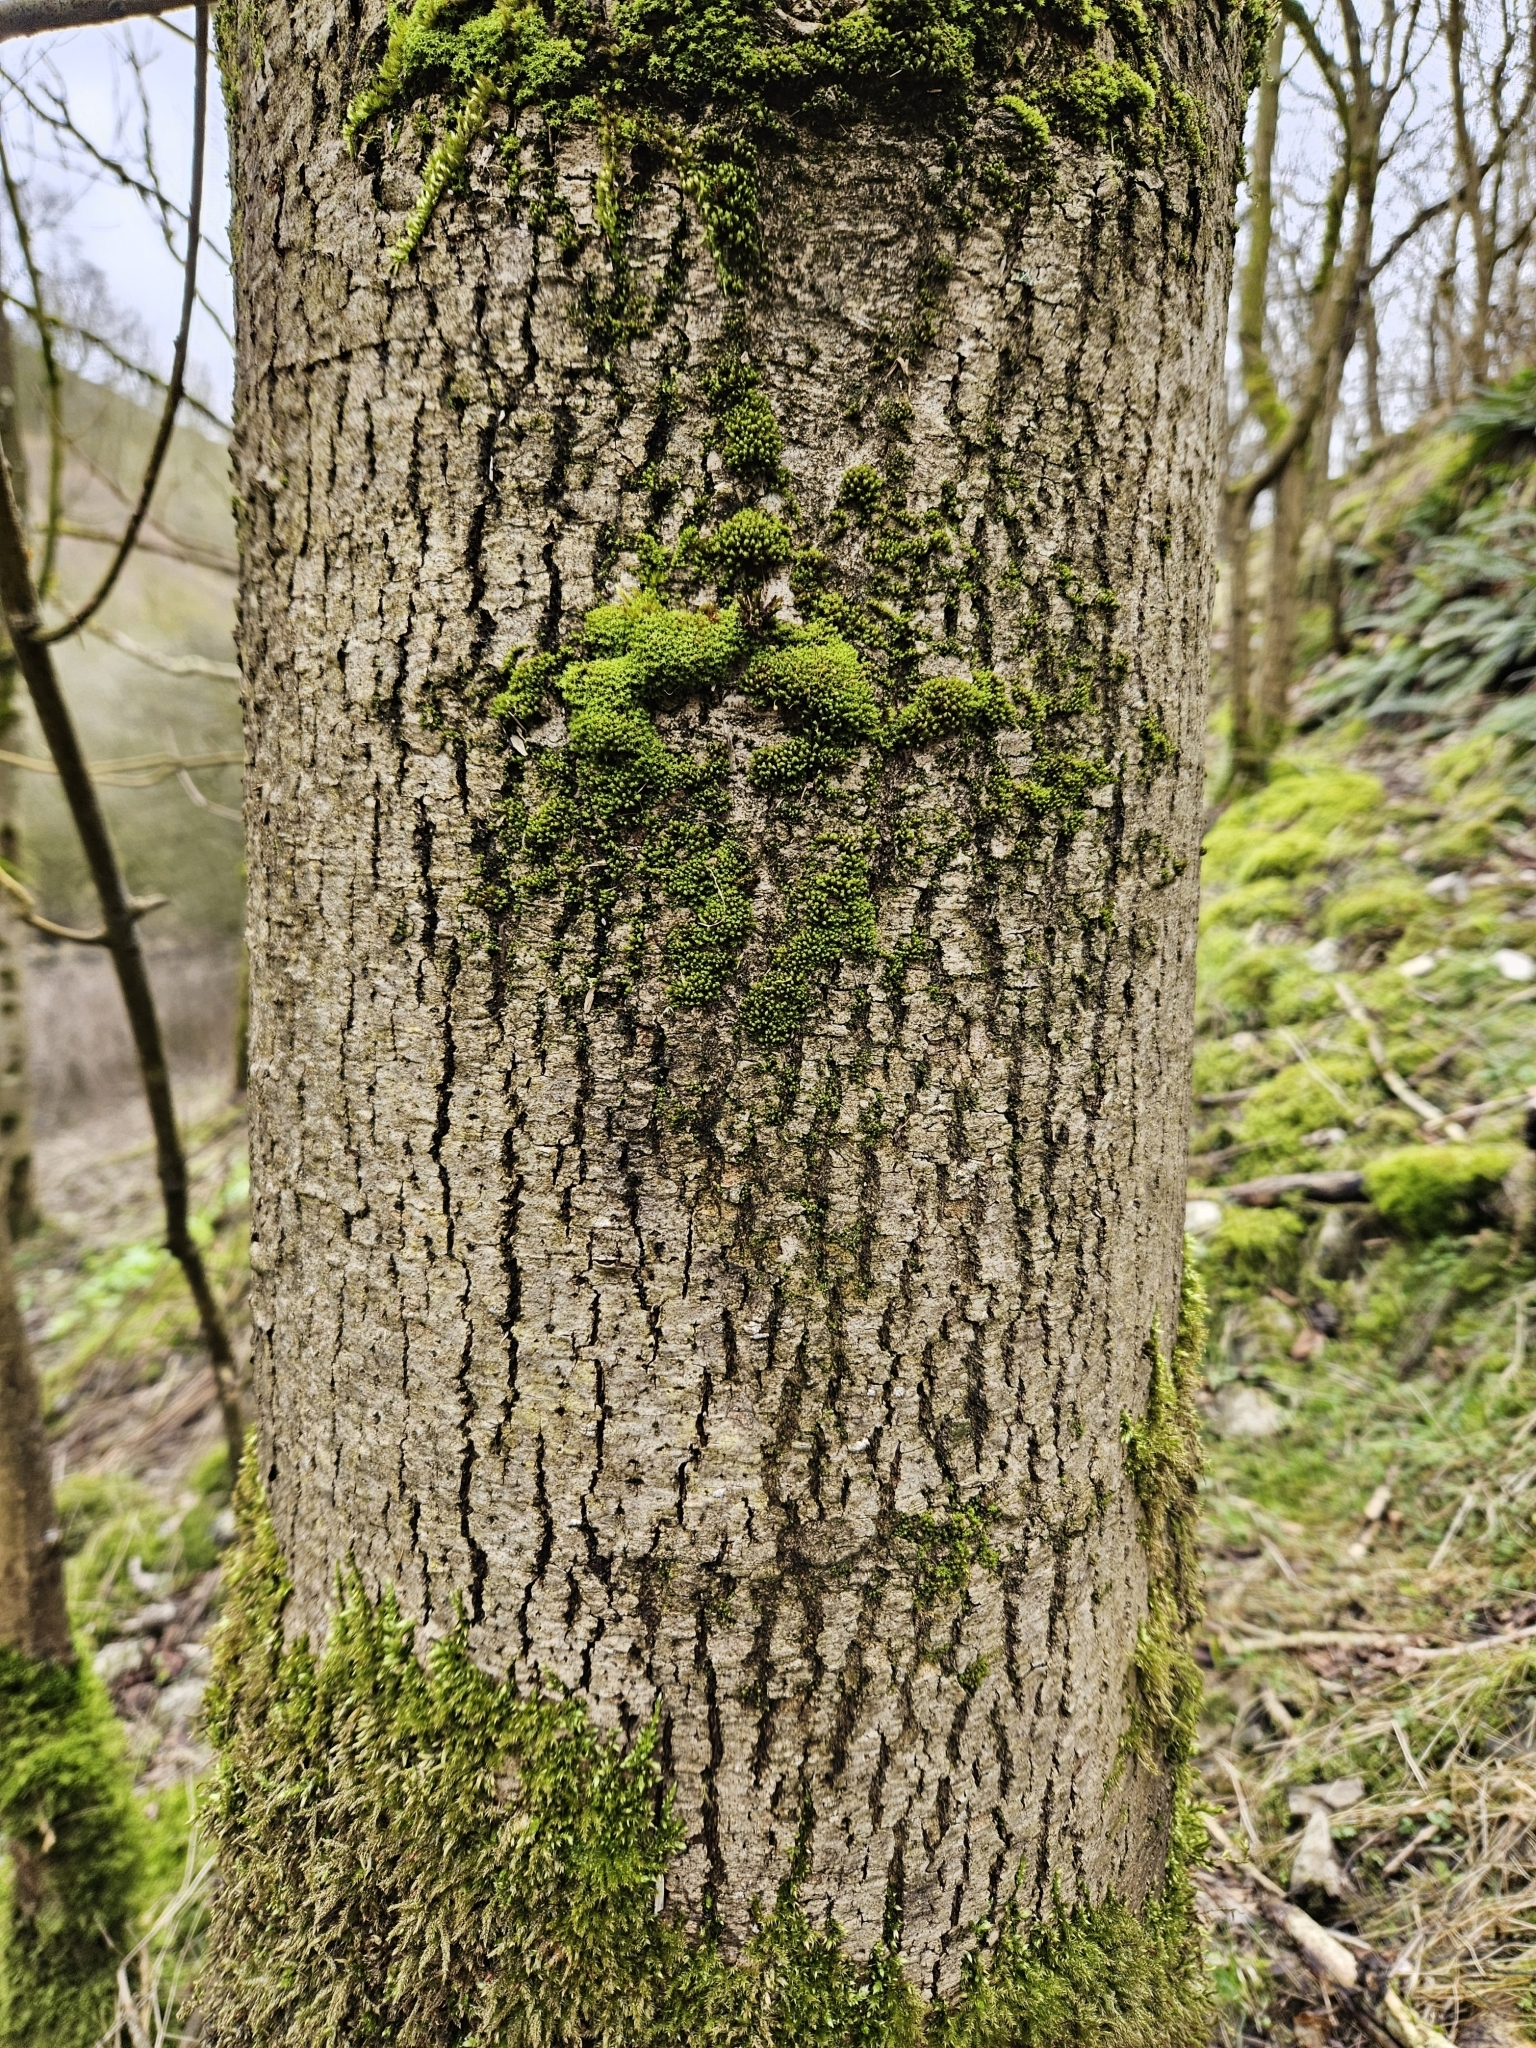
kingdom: Plantae
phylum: Bryophyta
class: Bryopsida
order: Orthotrichales
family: Orthotrichaceae
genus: Zygodon
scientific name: Zygodon viridissimus
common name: Green yoke moss
